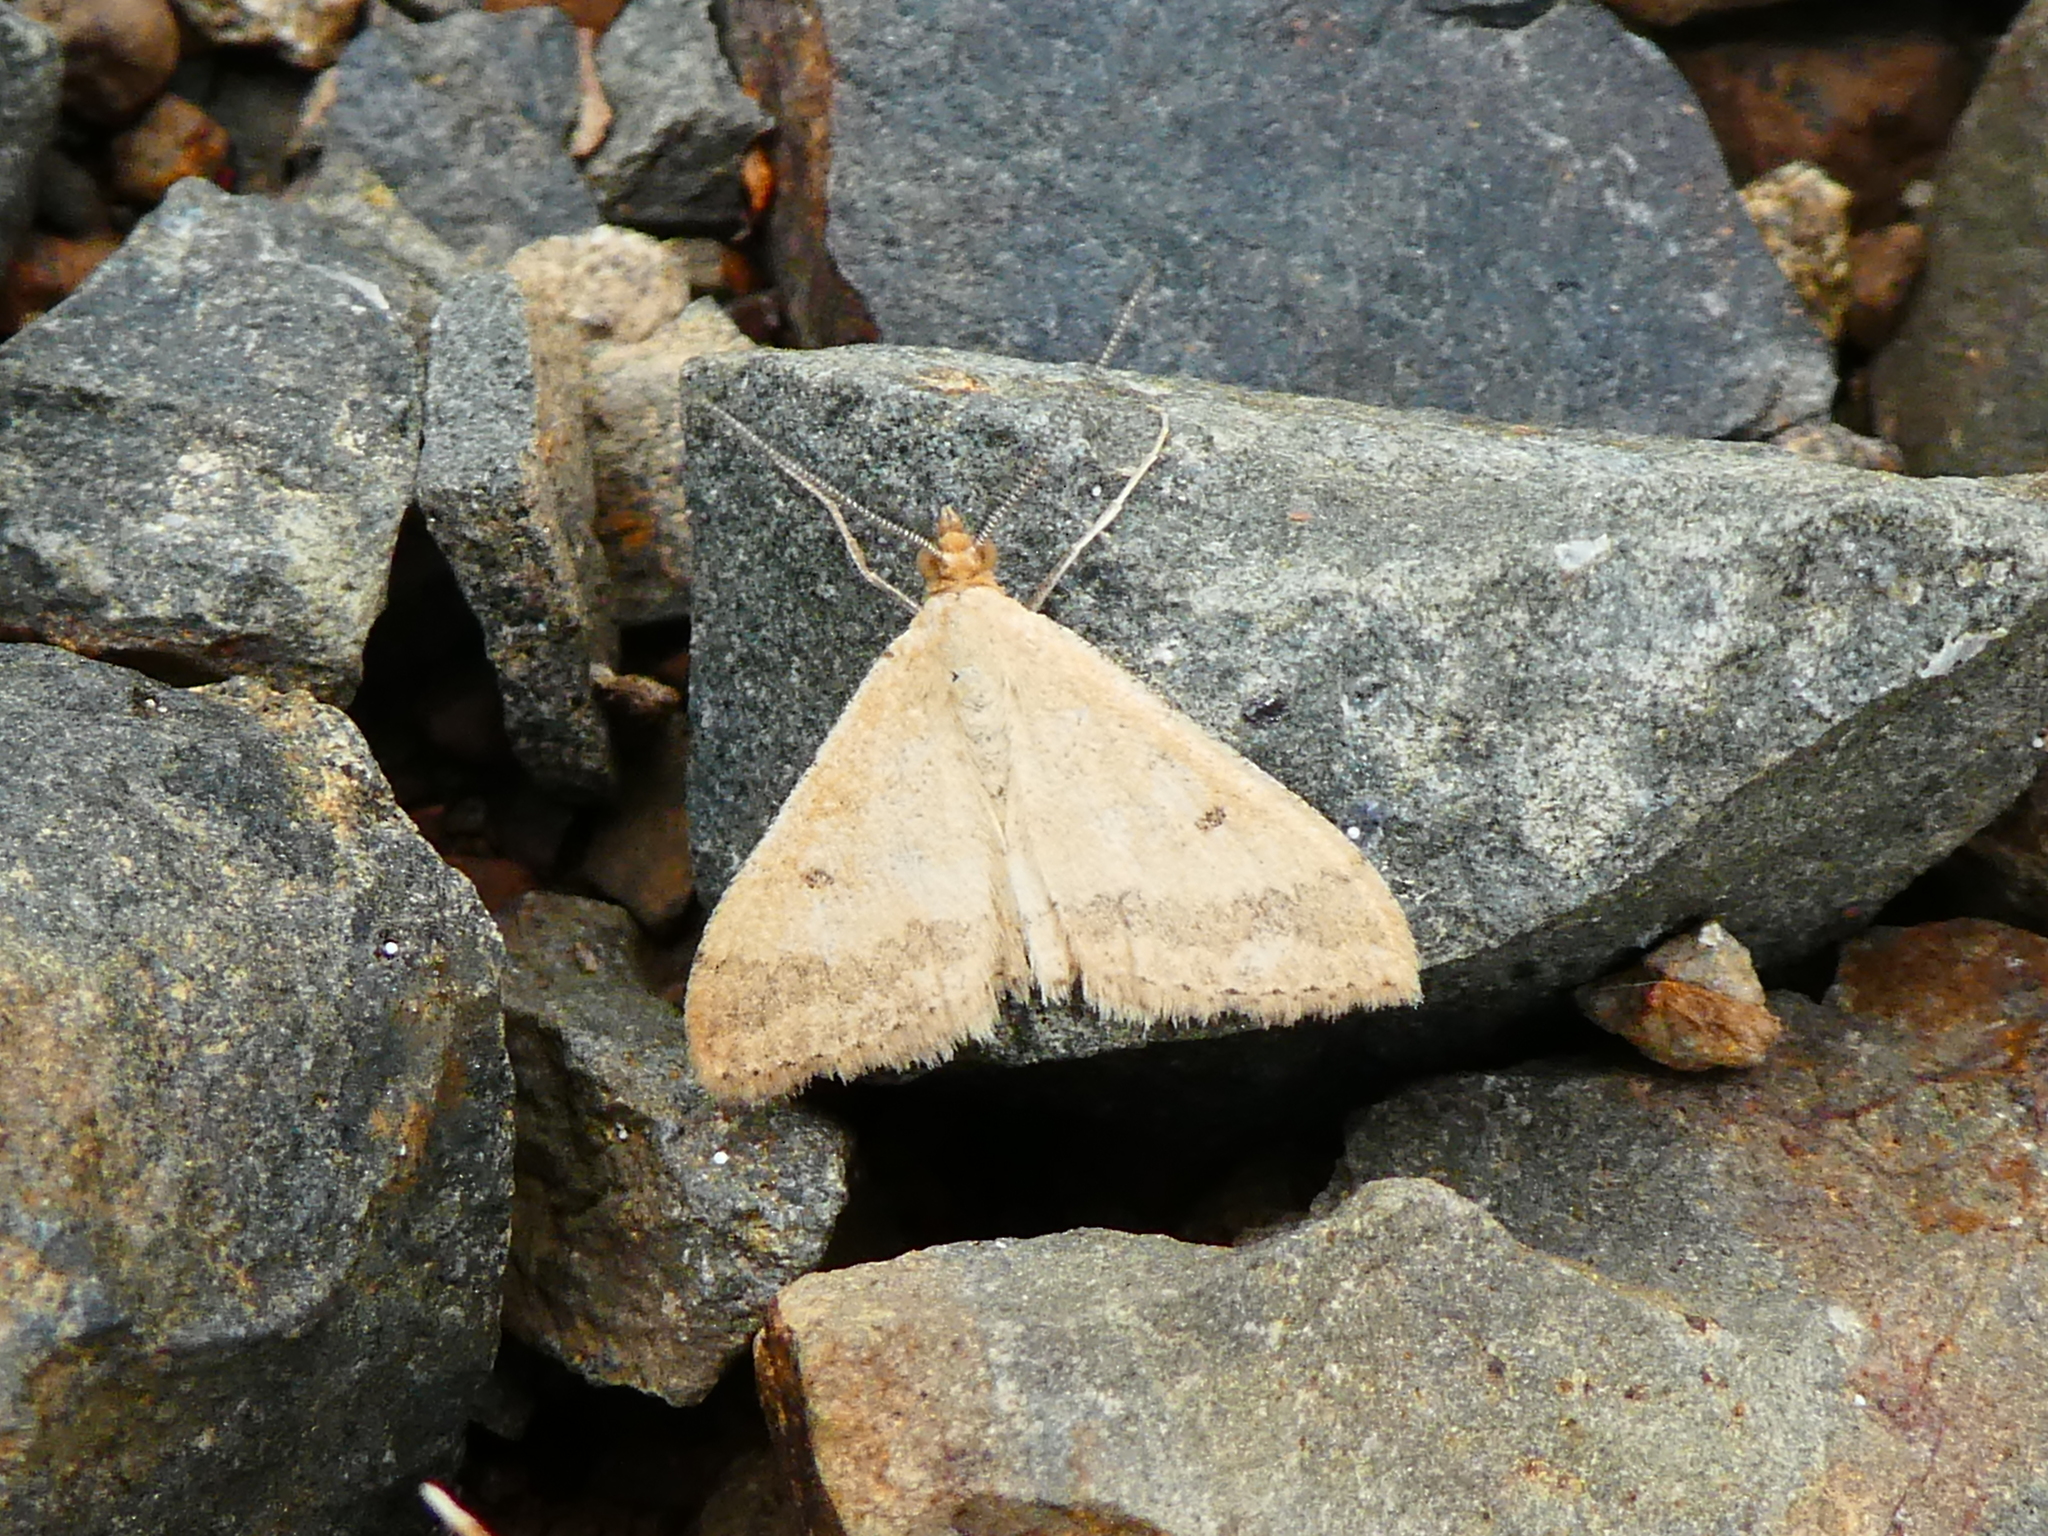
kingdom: Animalia
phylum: Arthropoda
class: Insecta
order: Lepidoptera
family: Geometridae
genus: Scopula
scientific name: Scopula rubraria
